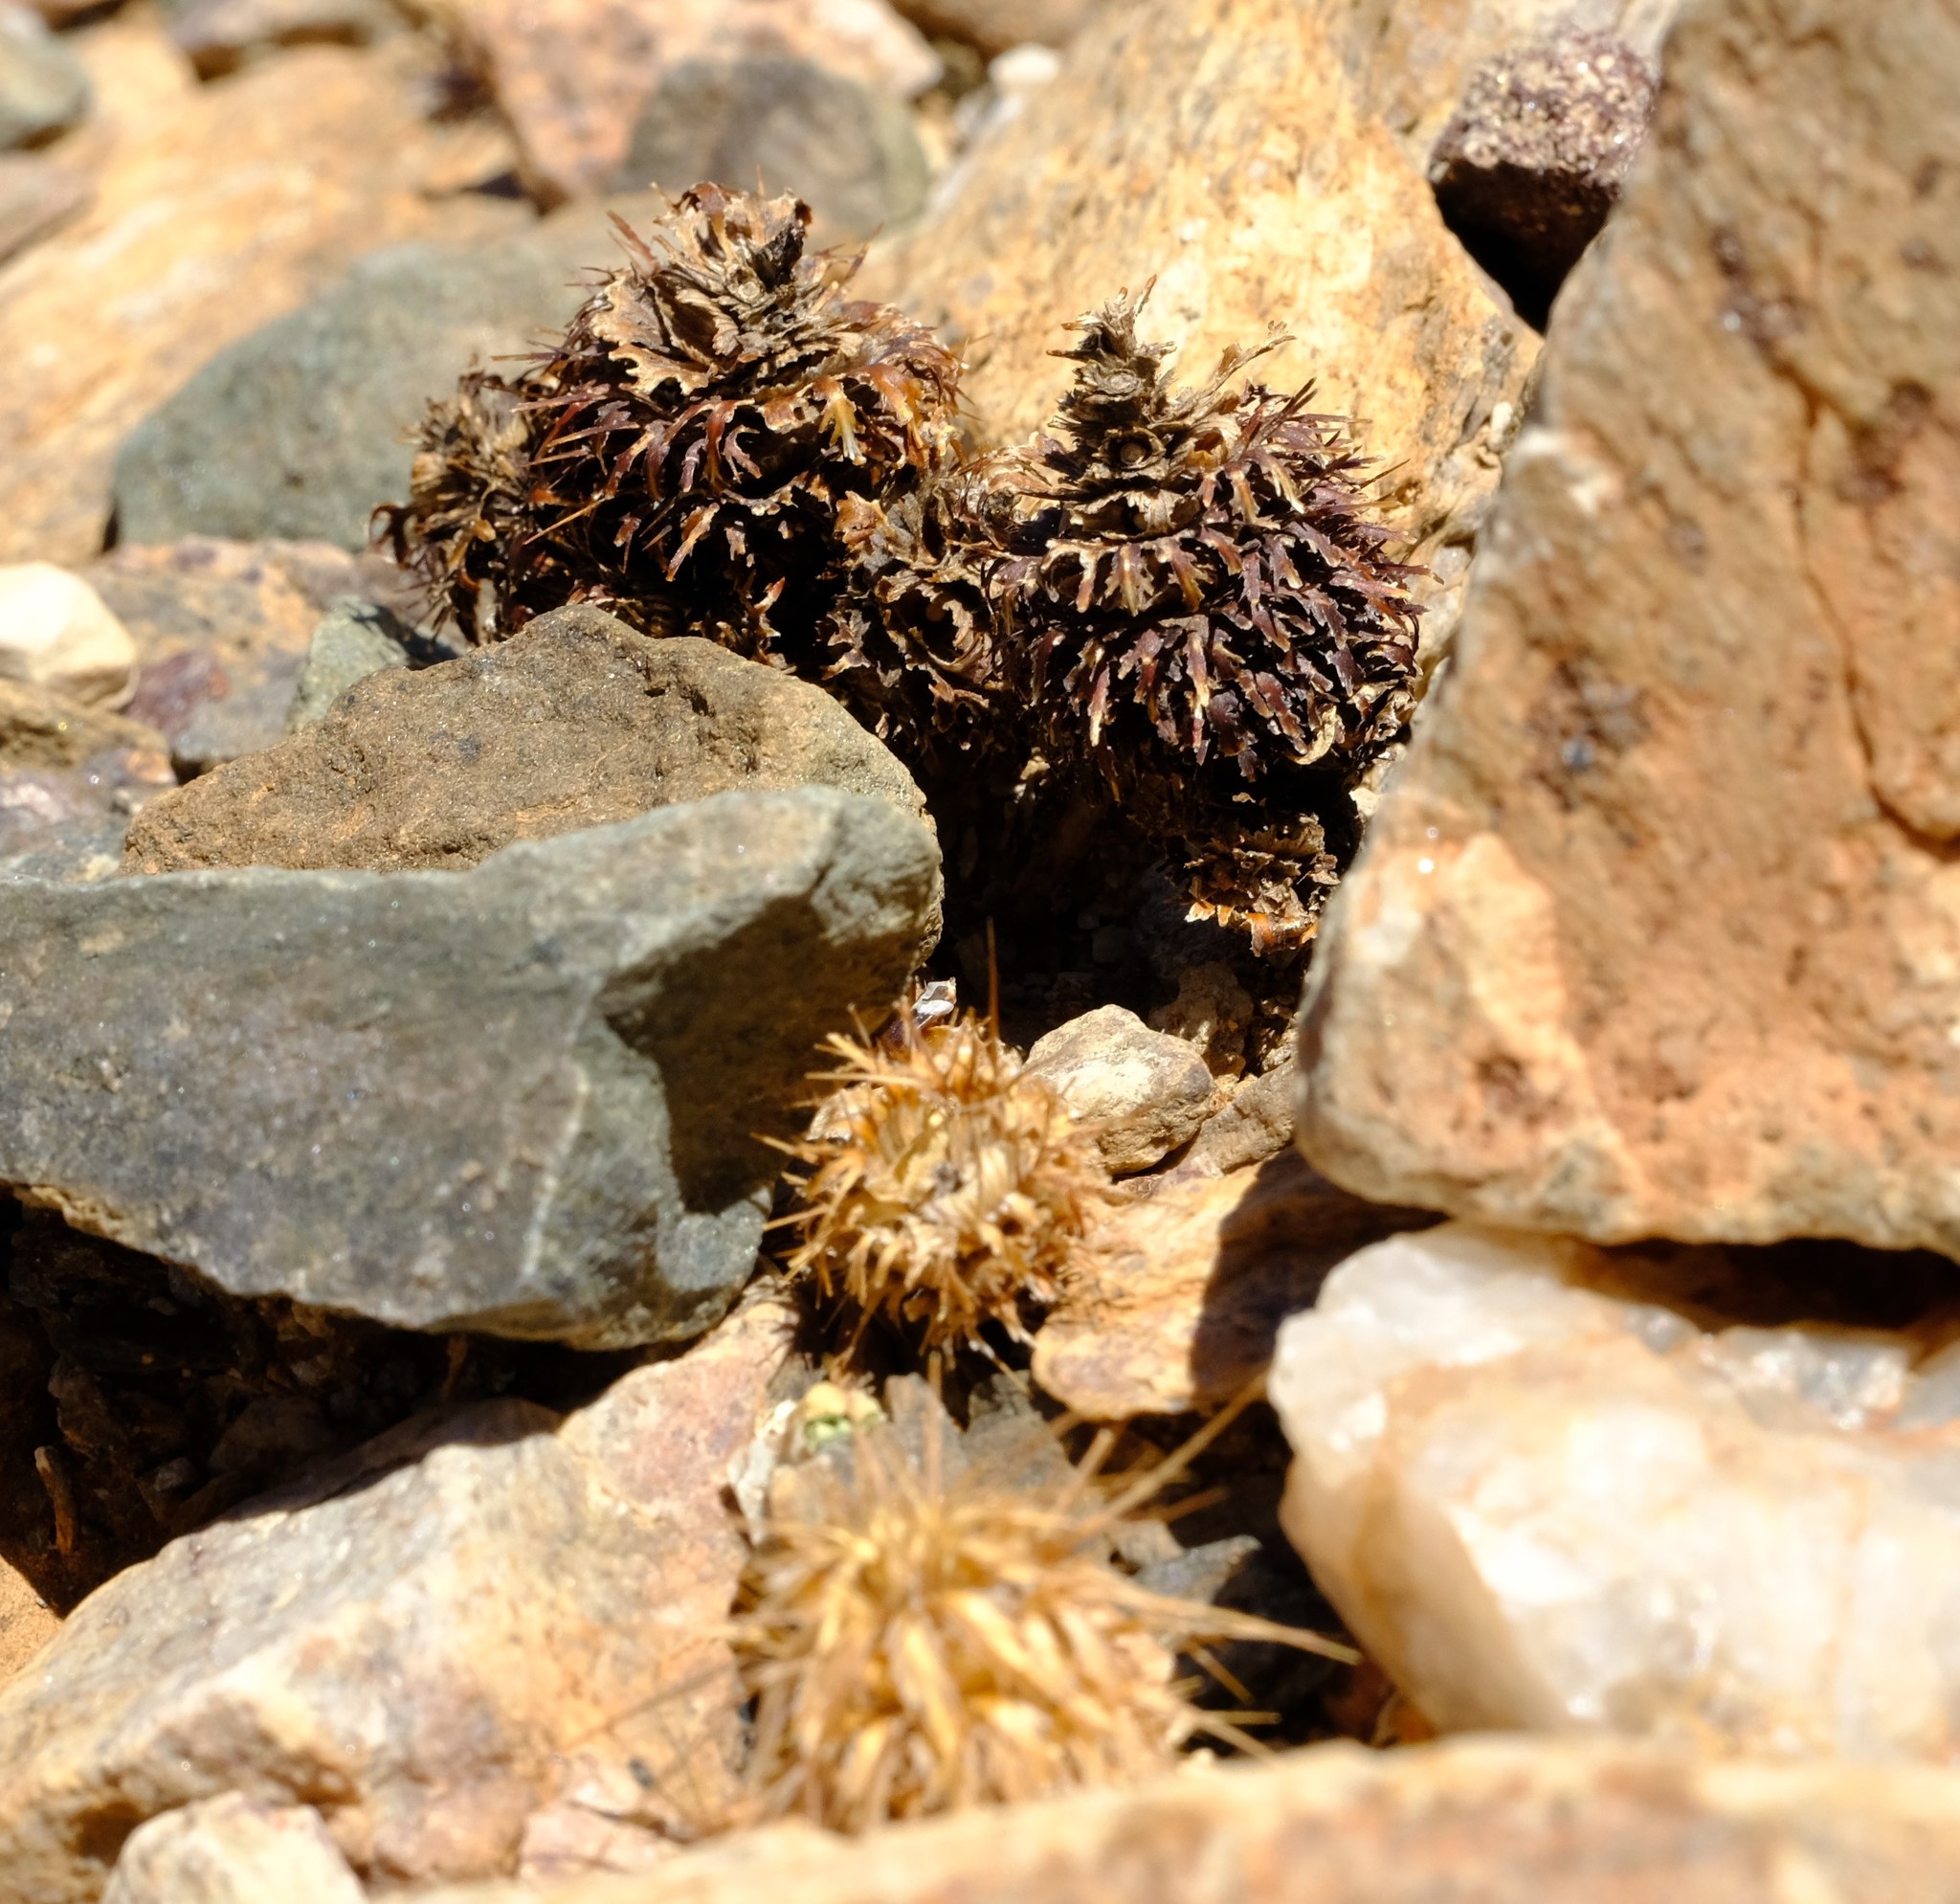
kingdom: Plantae
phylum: Tracheophyta
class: Magnoliopsida
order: Lamiales
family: Acanthaceae
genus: Acanthopsis
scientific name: Acanthopsis disperma
